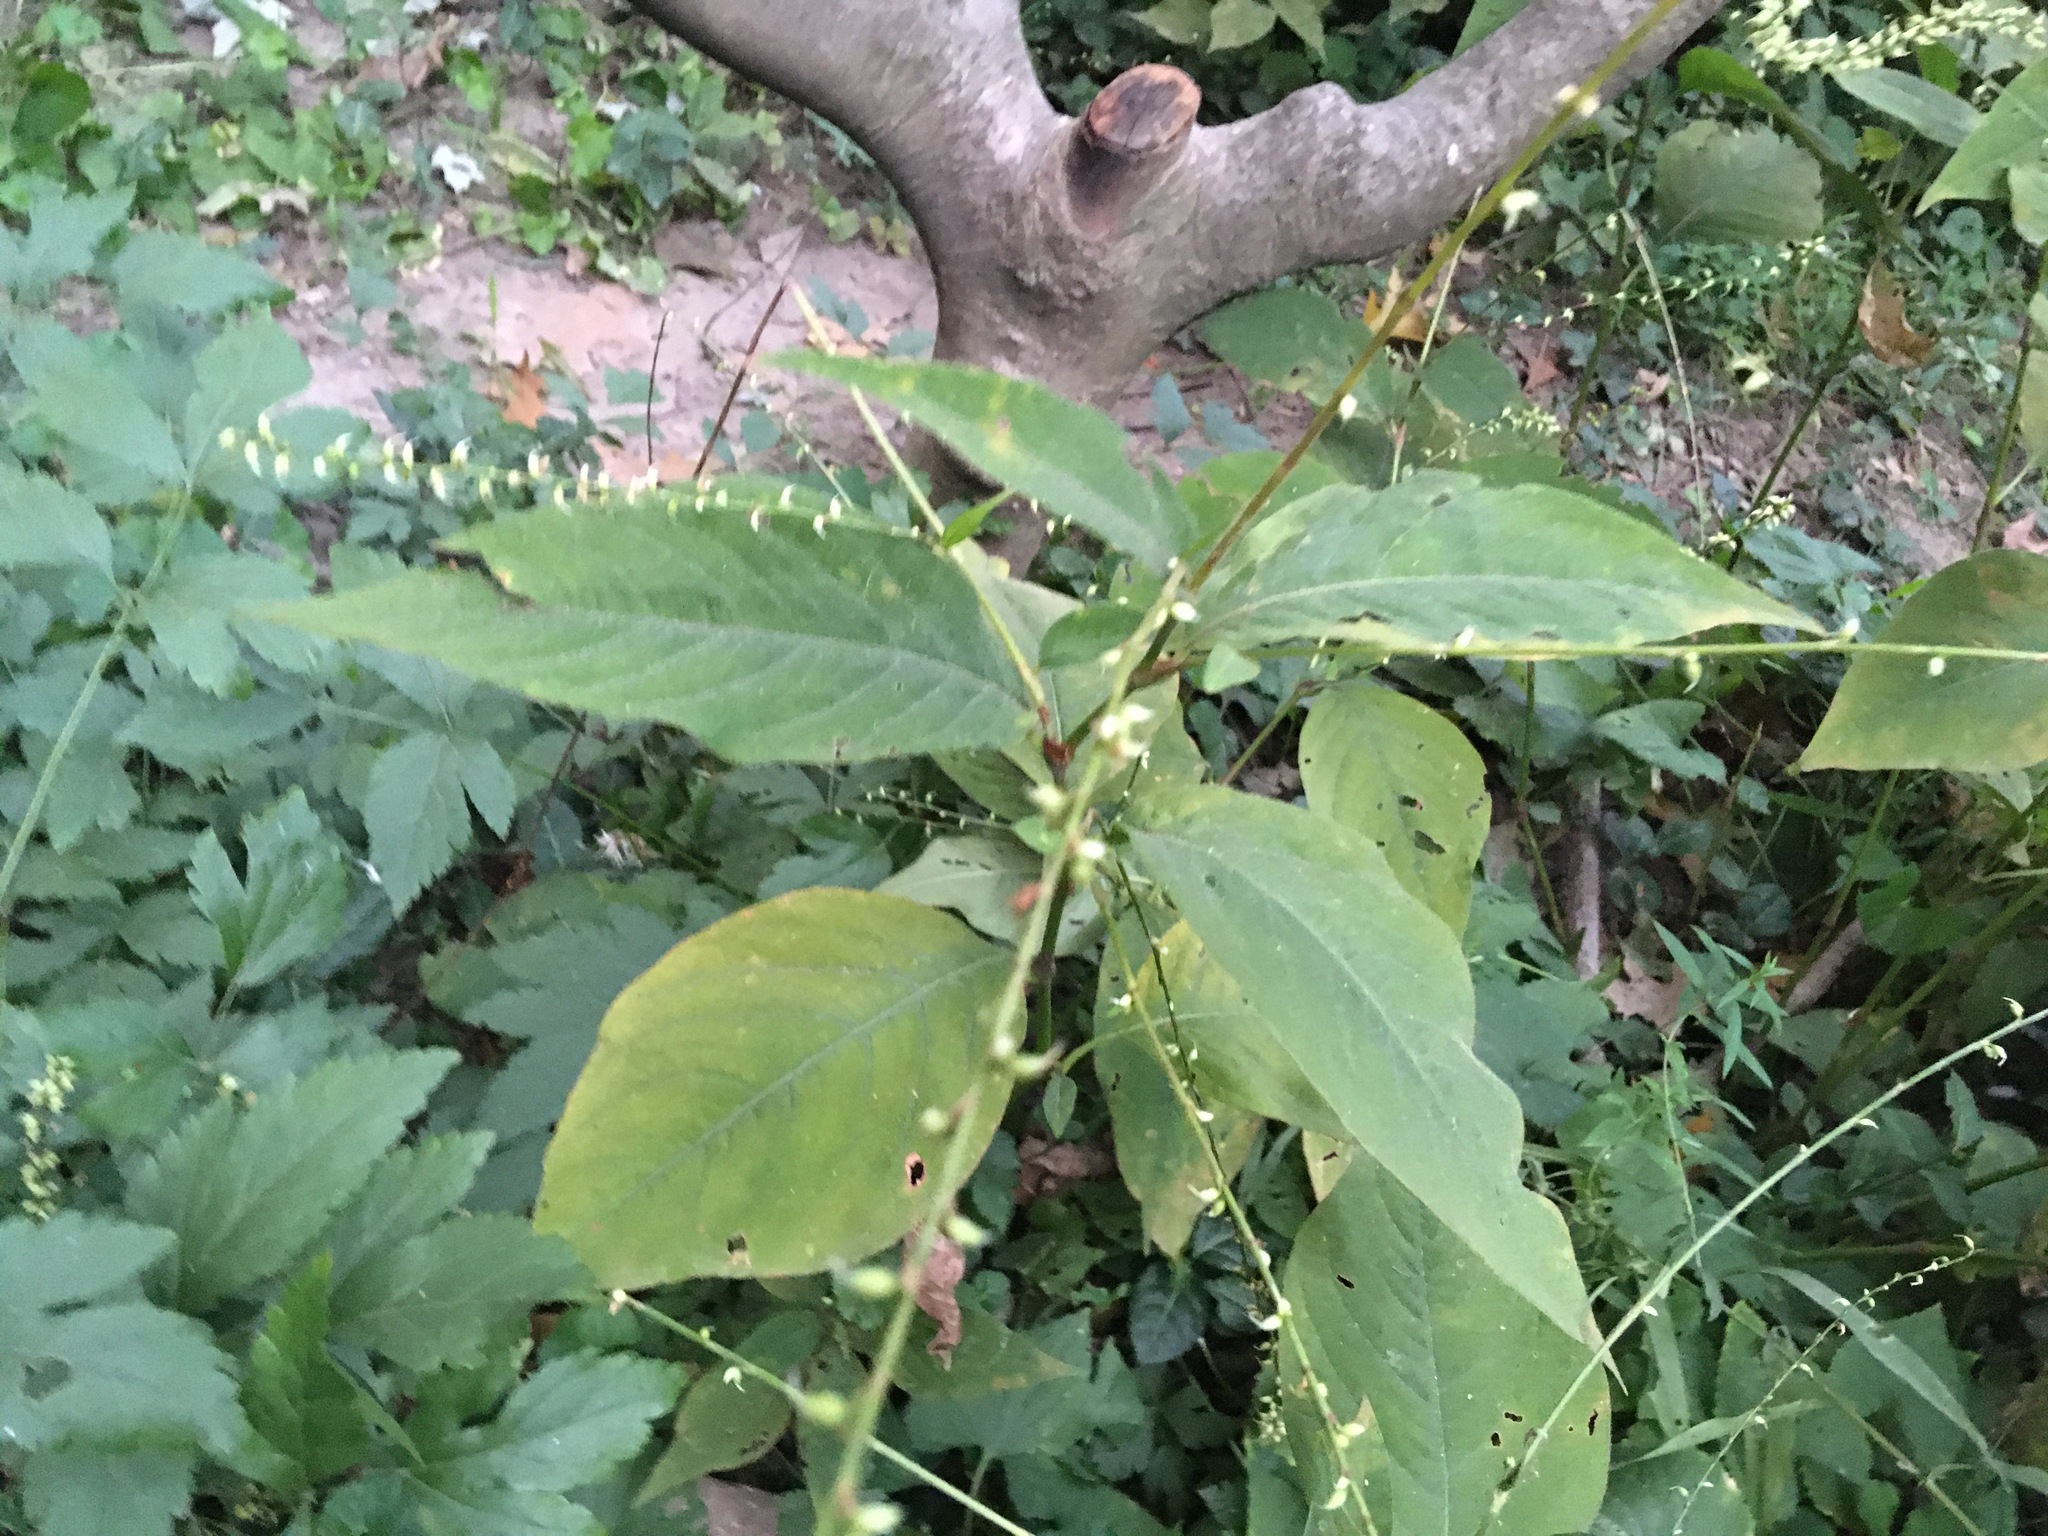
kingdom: Plantae
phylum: Tracheophyta
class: Magnoliopsida
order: Caryophyllales
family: Polygonaceae
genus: Persicaria
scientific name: Persicaria virginiana
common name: Jumpseed
